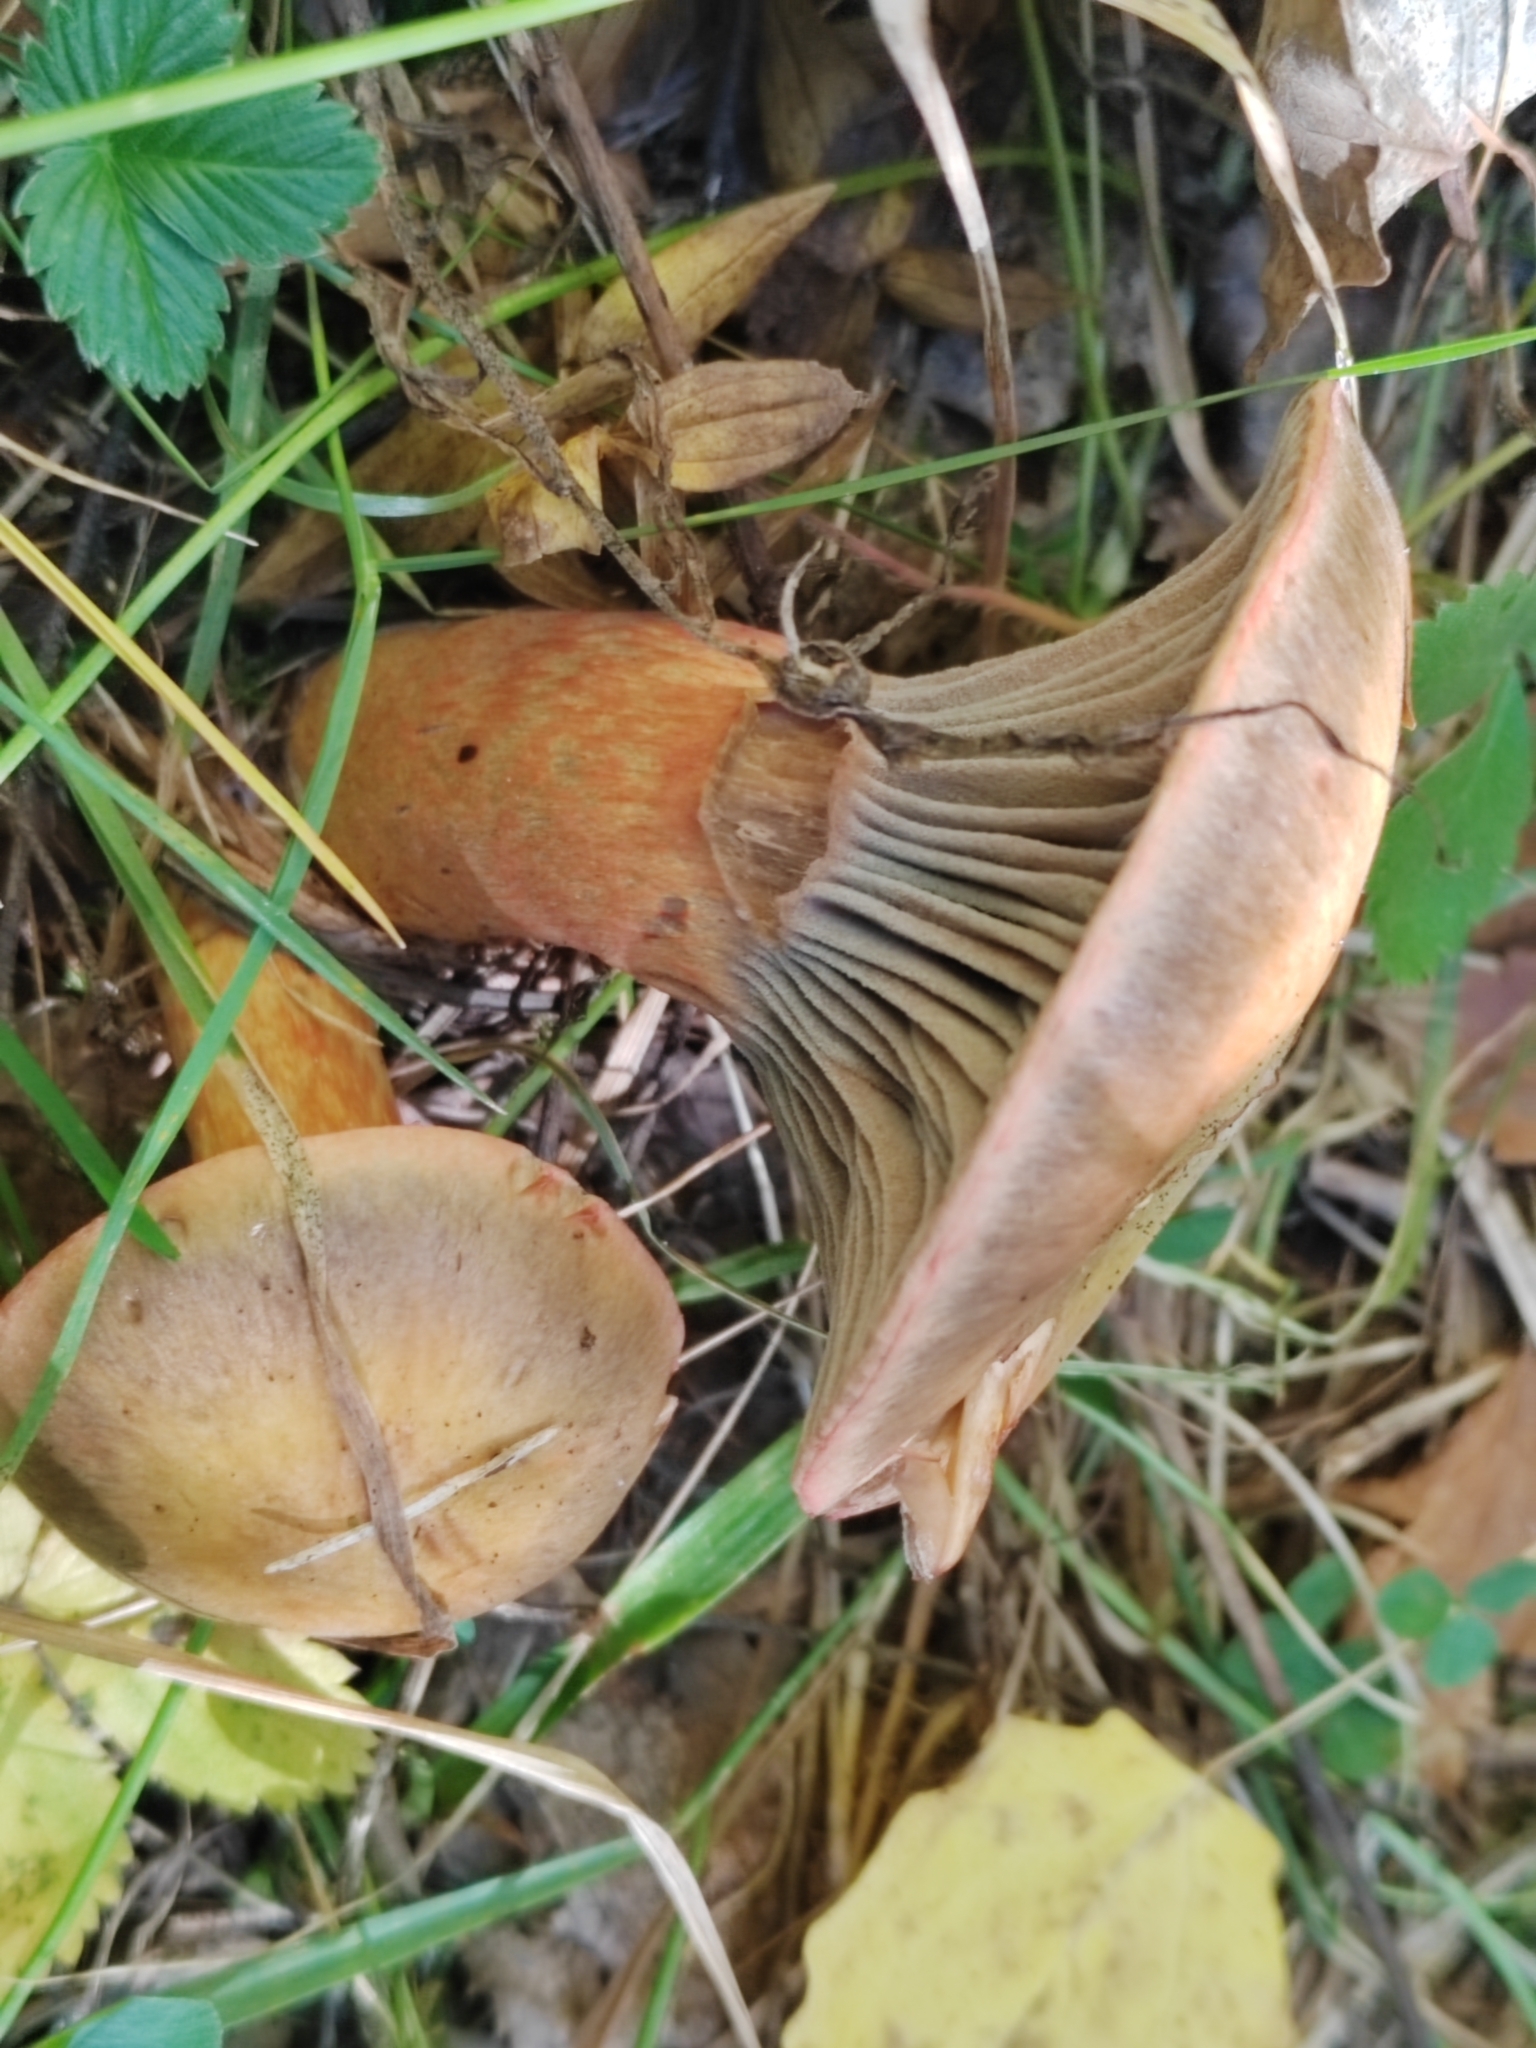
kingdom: Fungi
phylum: Basidiomycota
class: Agaricomycetes
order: Boletales
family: Gomphidiaceae
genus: Chroogomphus
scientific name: Chroogomphus rutilus
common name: Copper spike
